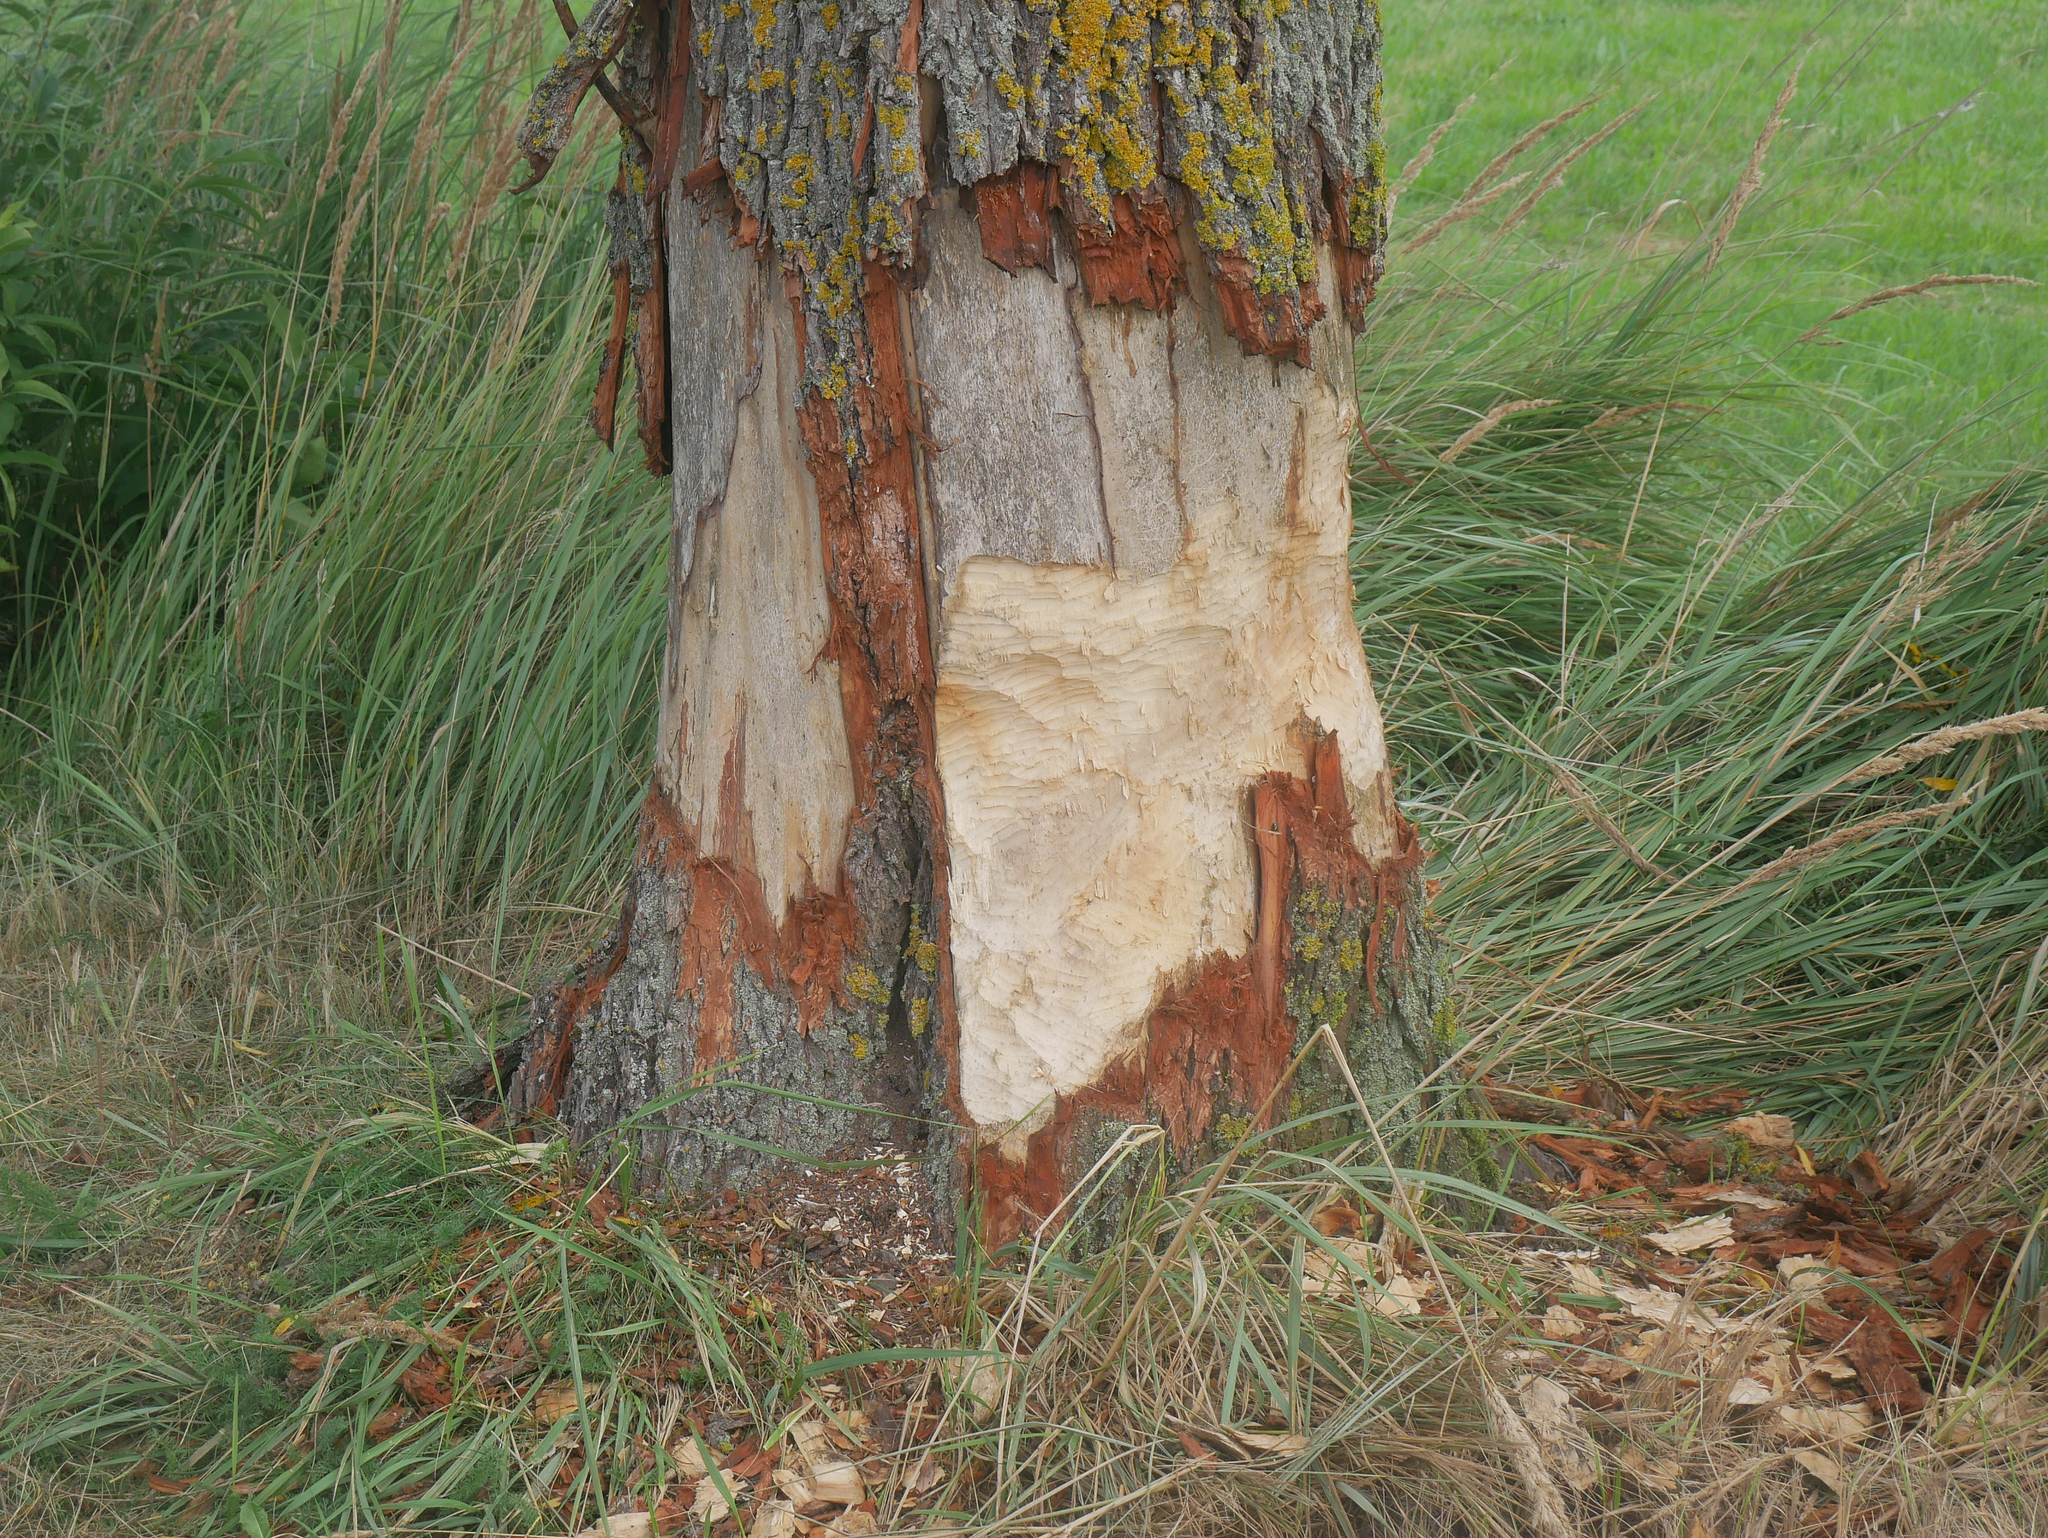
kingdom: Animalia
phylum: Chordata
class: Mammalia
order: Rodentia
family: Castoridae
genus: Castor
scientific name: Castor fiber
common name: Eurasian beaver
